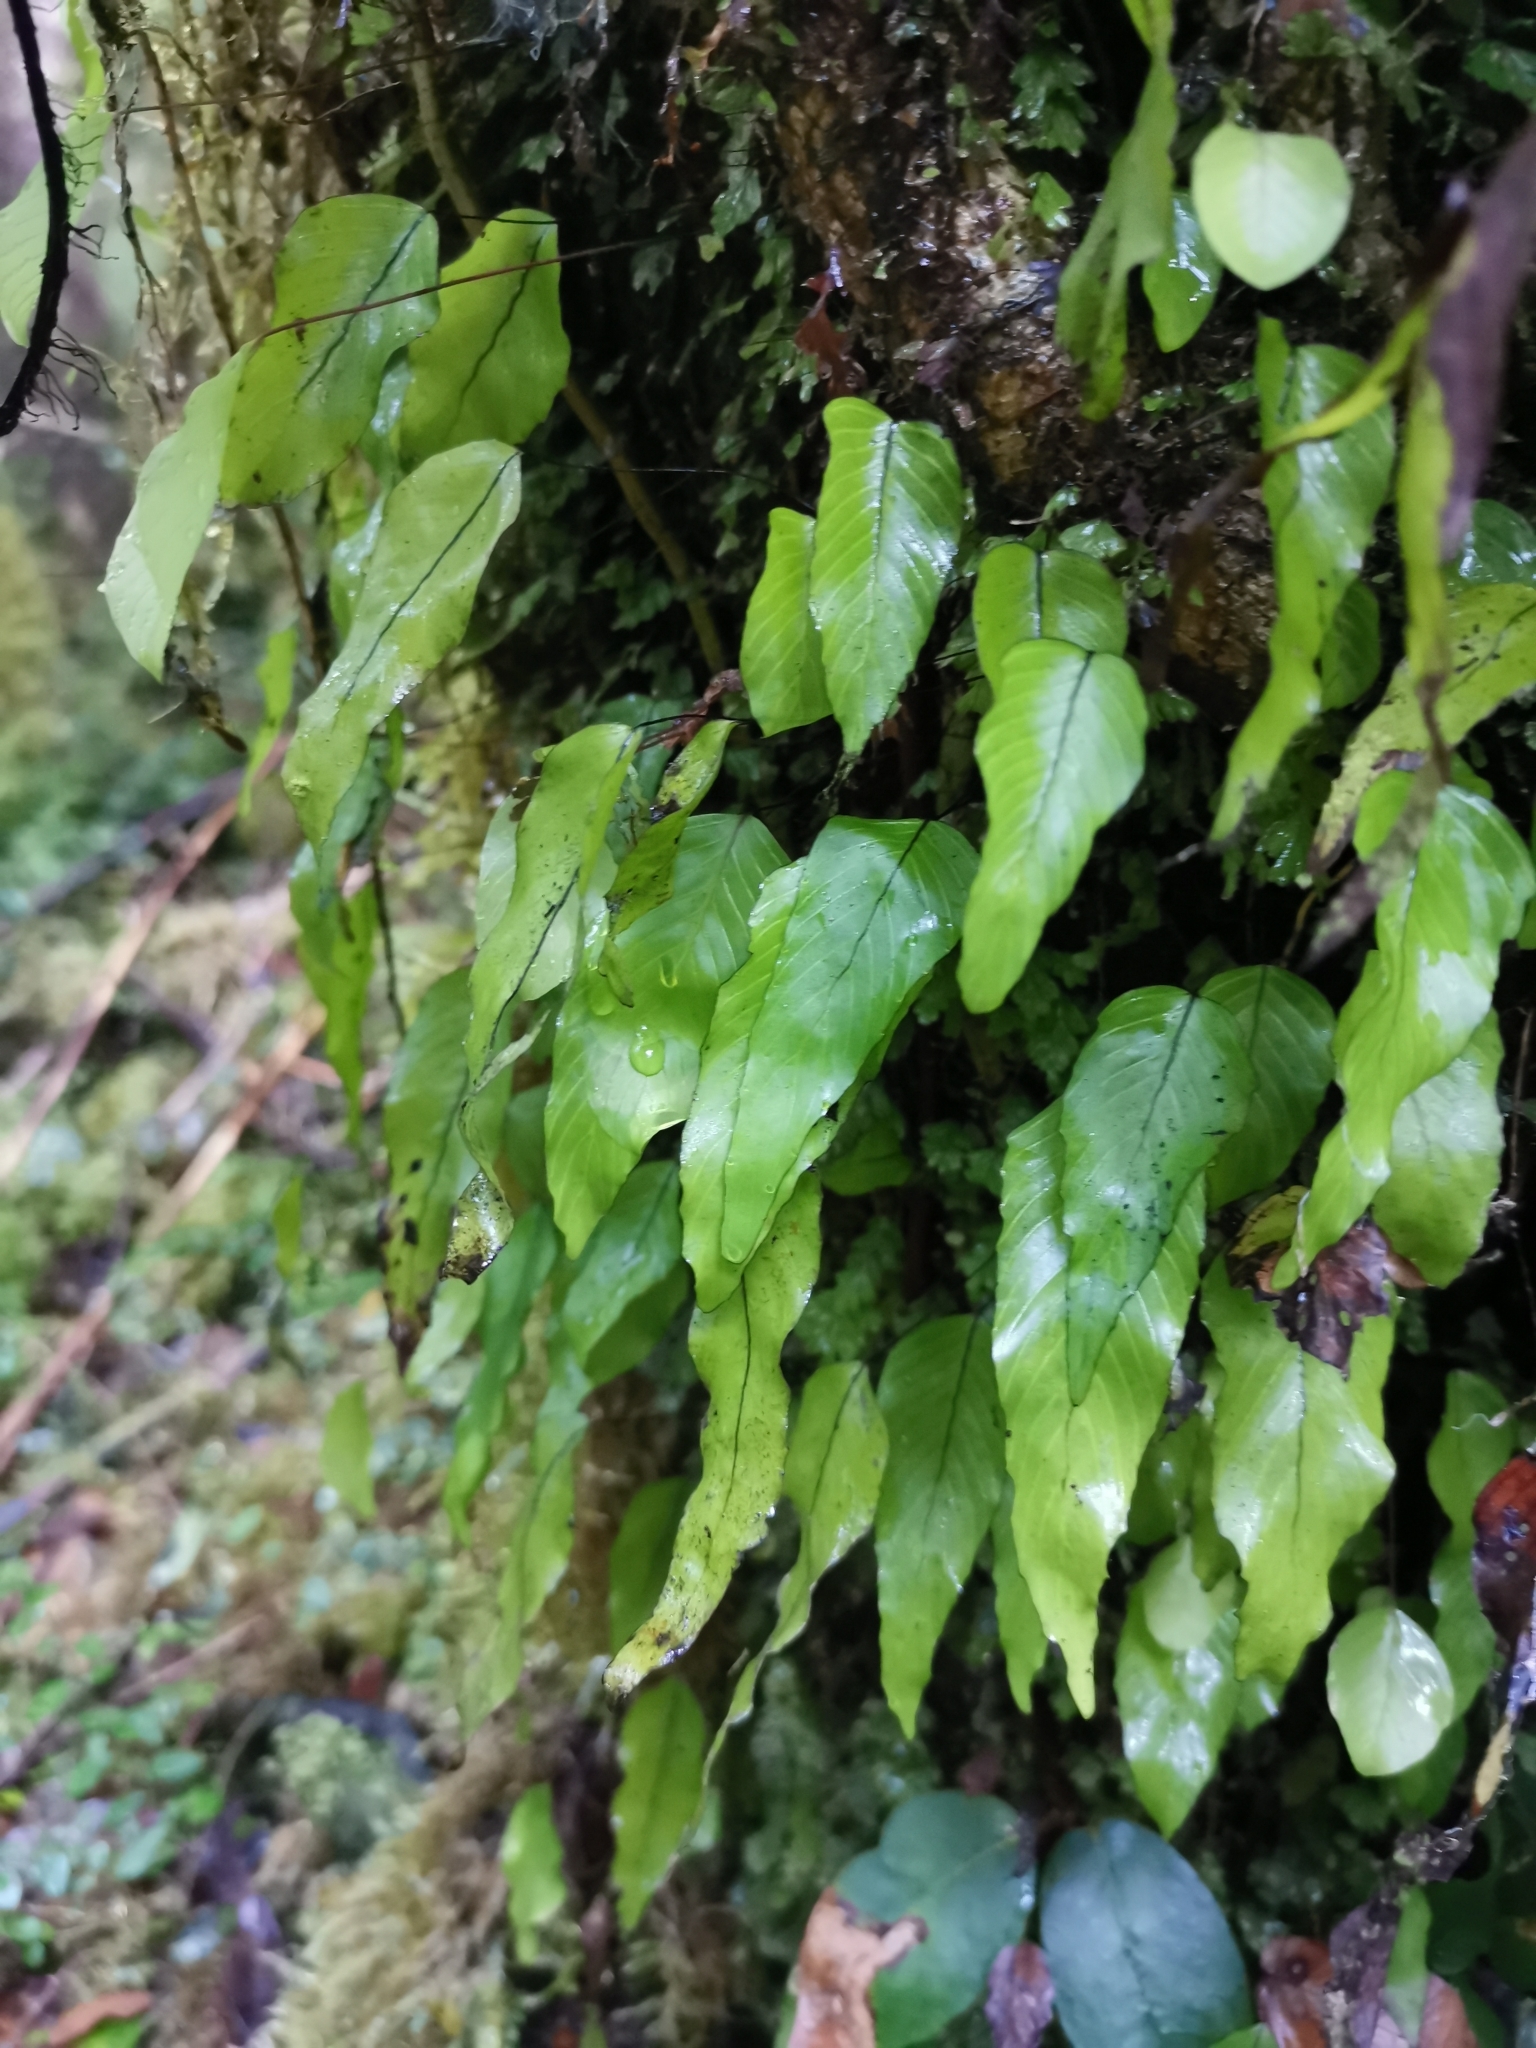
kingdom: Plantae
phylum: Tracheophyta
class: Polypodiopsida
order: Hymenophyllales
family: Hymenophyllaceae
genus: Hymenophyllum
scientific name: Hymenophyllum cruentum
